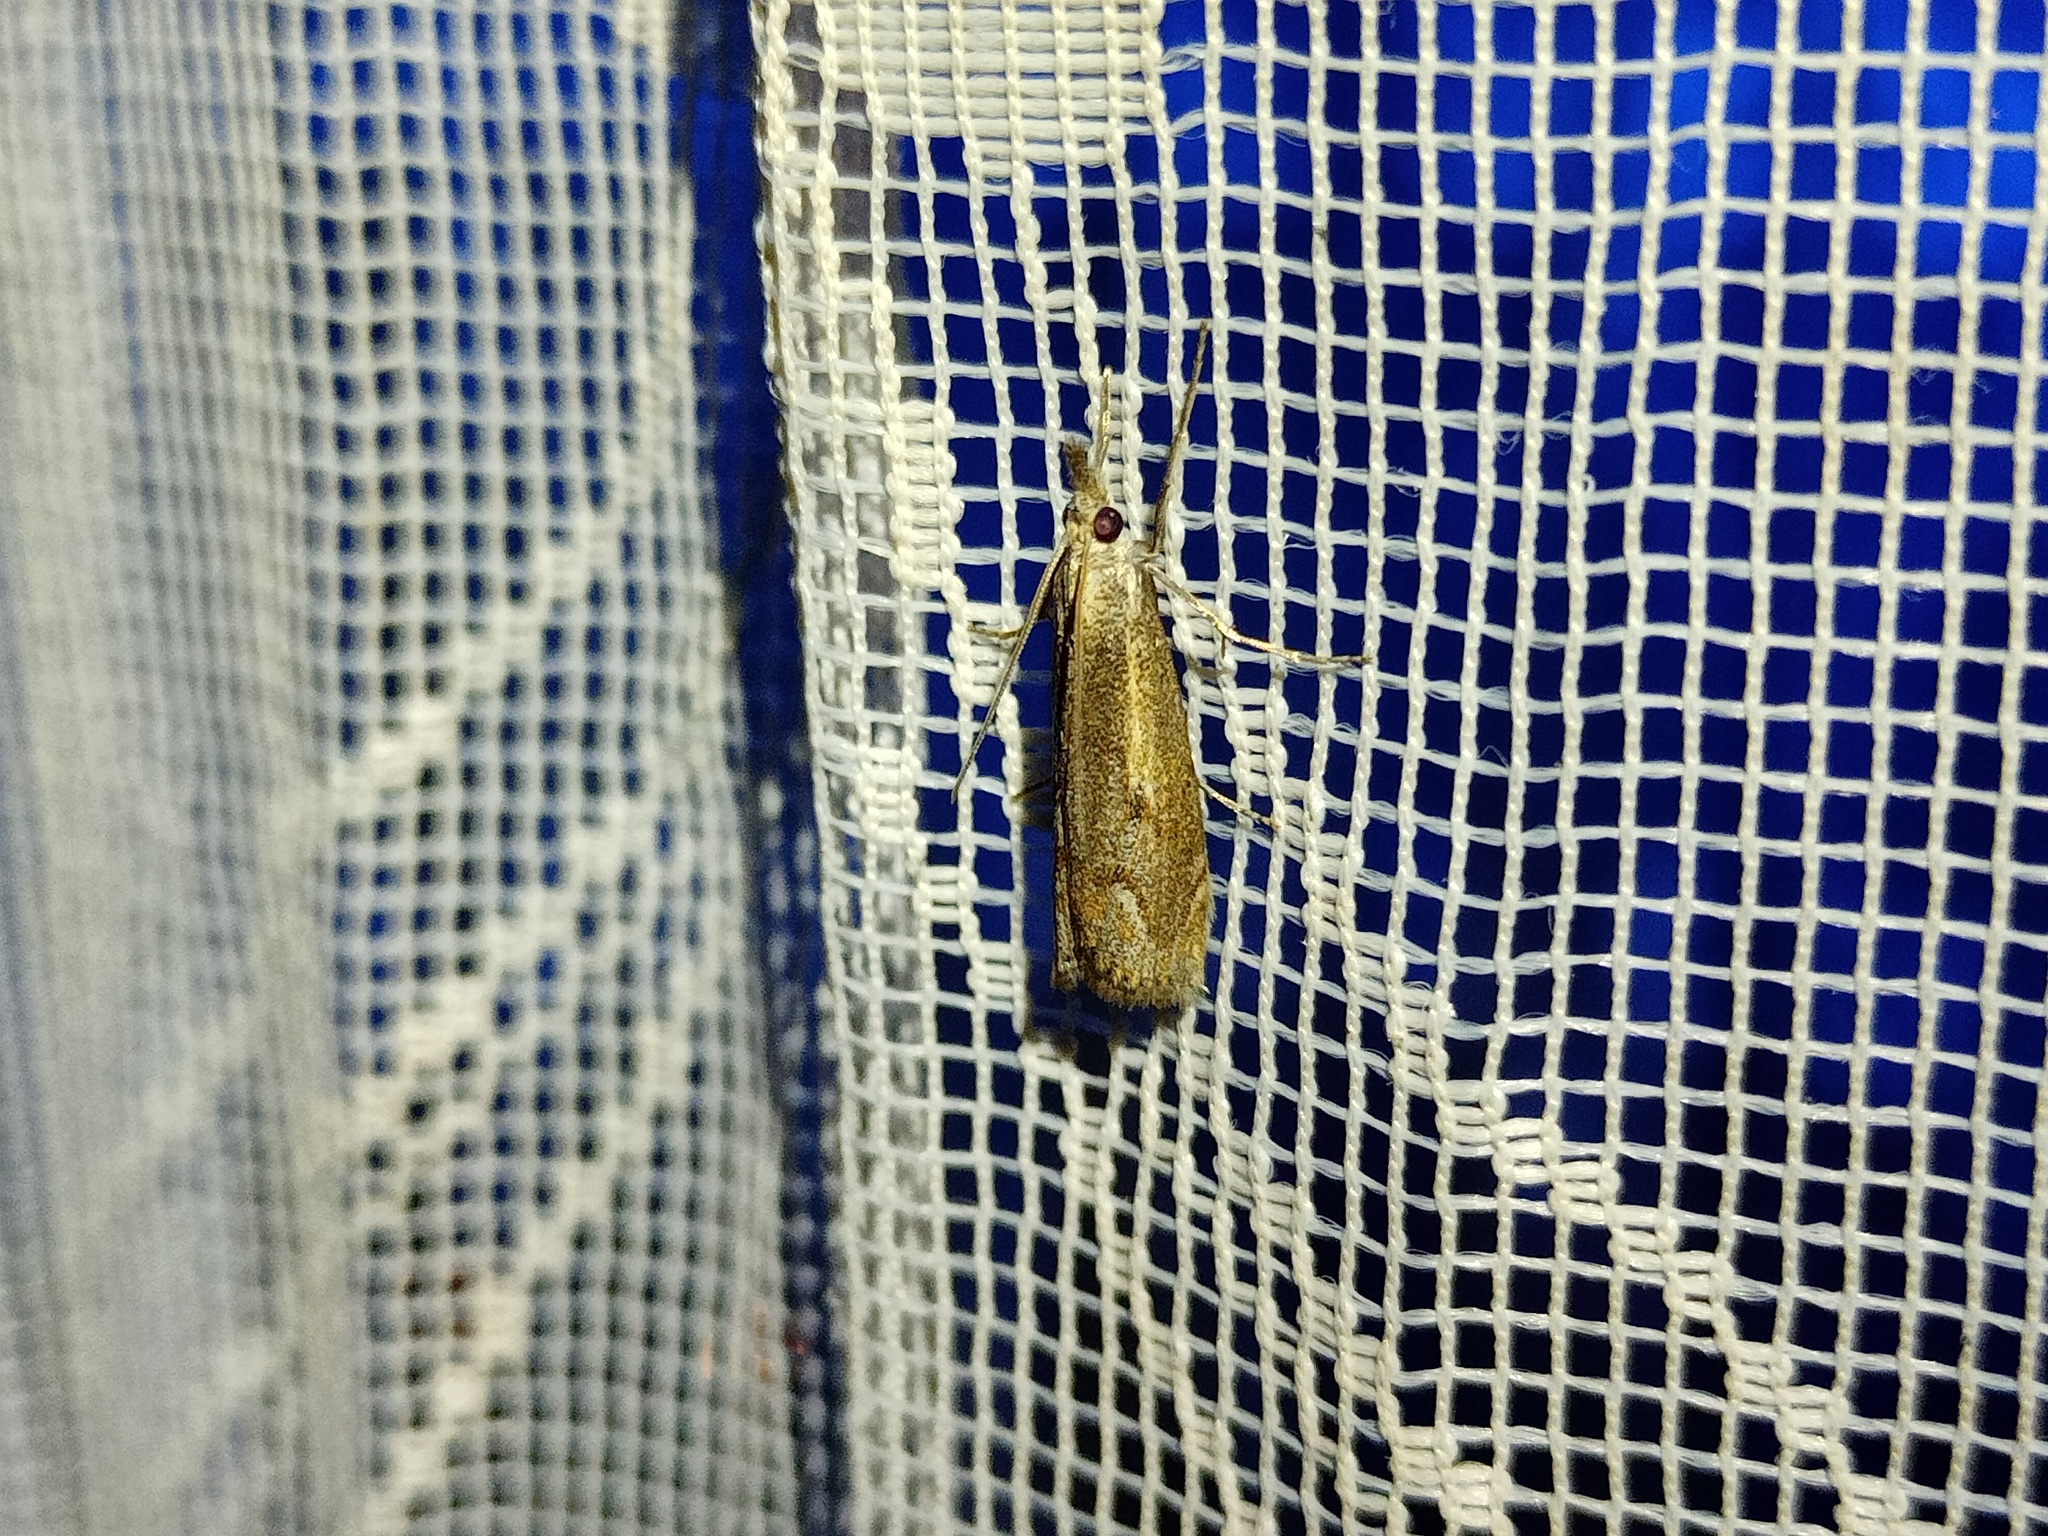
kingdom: Animalia
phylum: Arthropoda
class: Insecta
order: Lepidoptera
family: Crambidae
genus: Agriphila
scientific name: Agriphila geniculea
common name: Elbow-stripe grass-veneer
